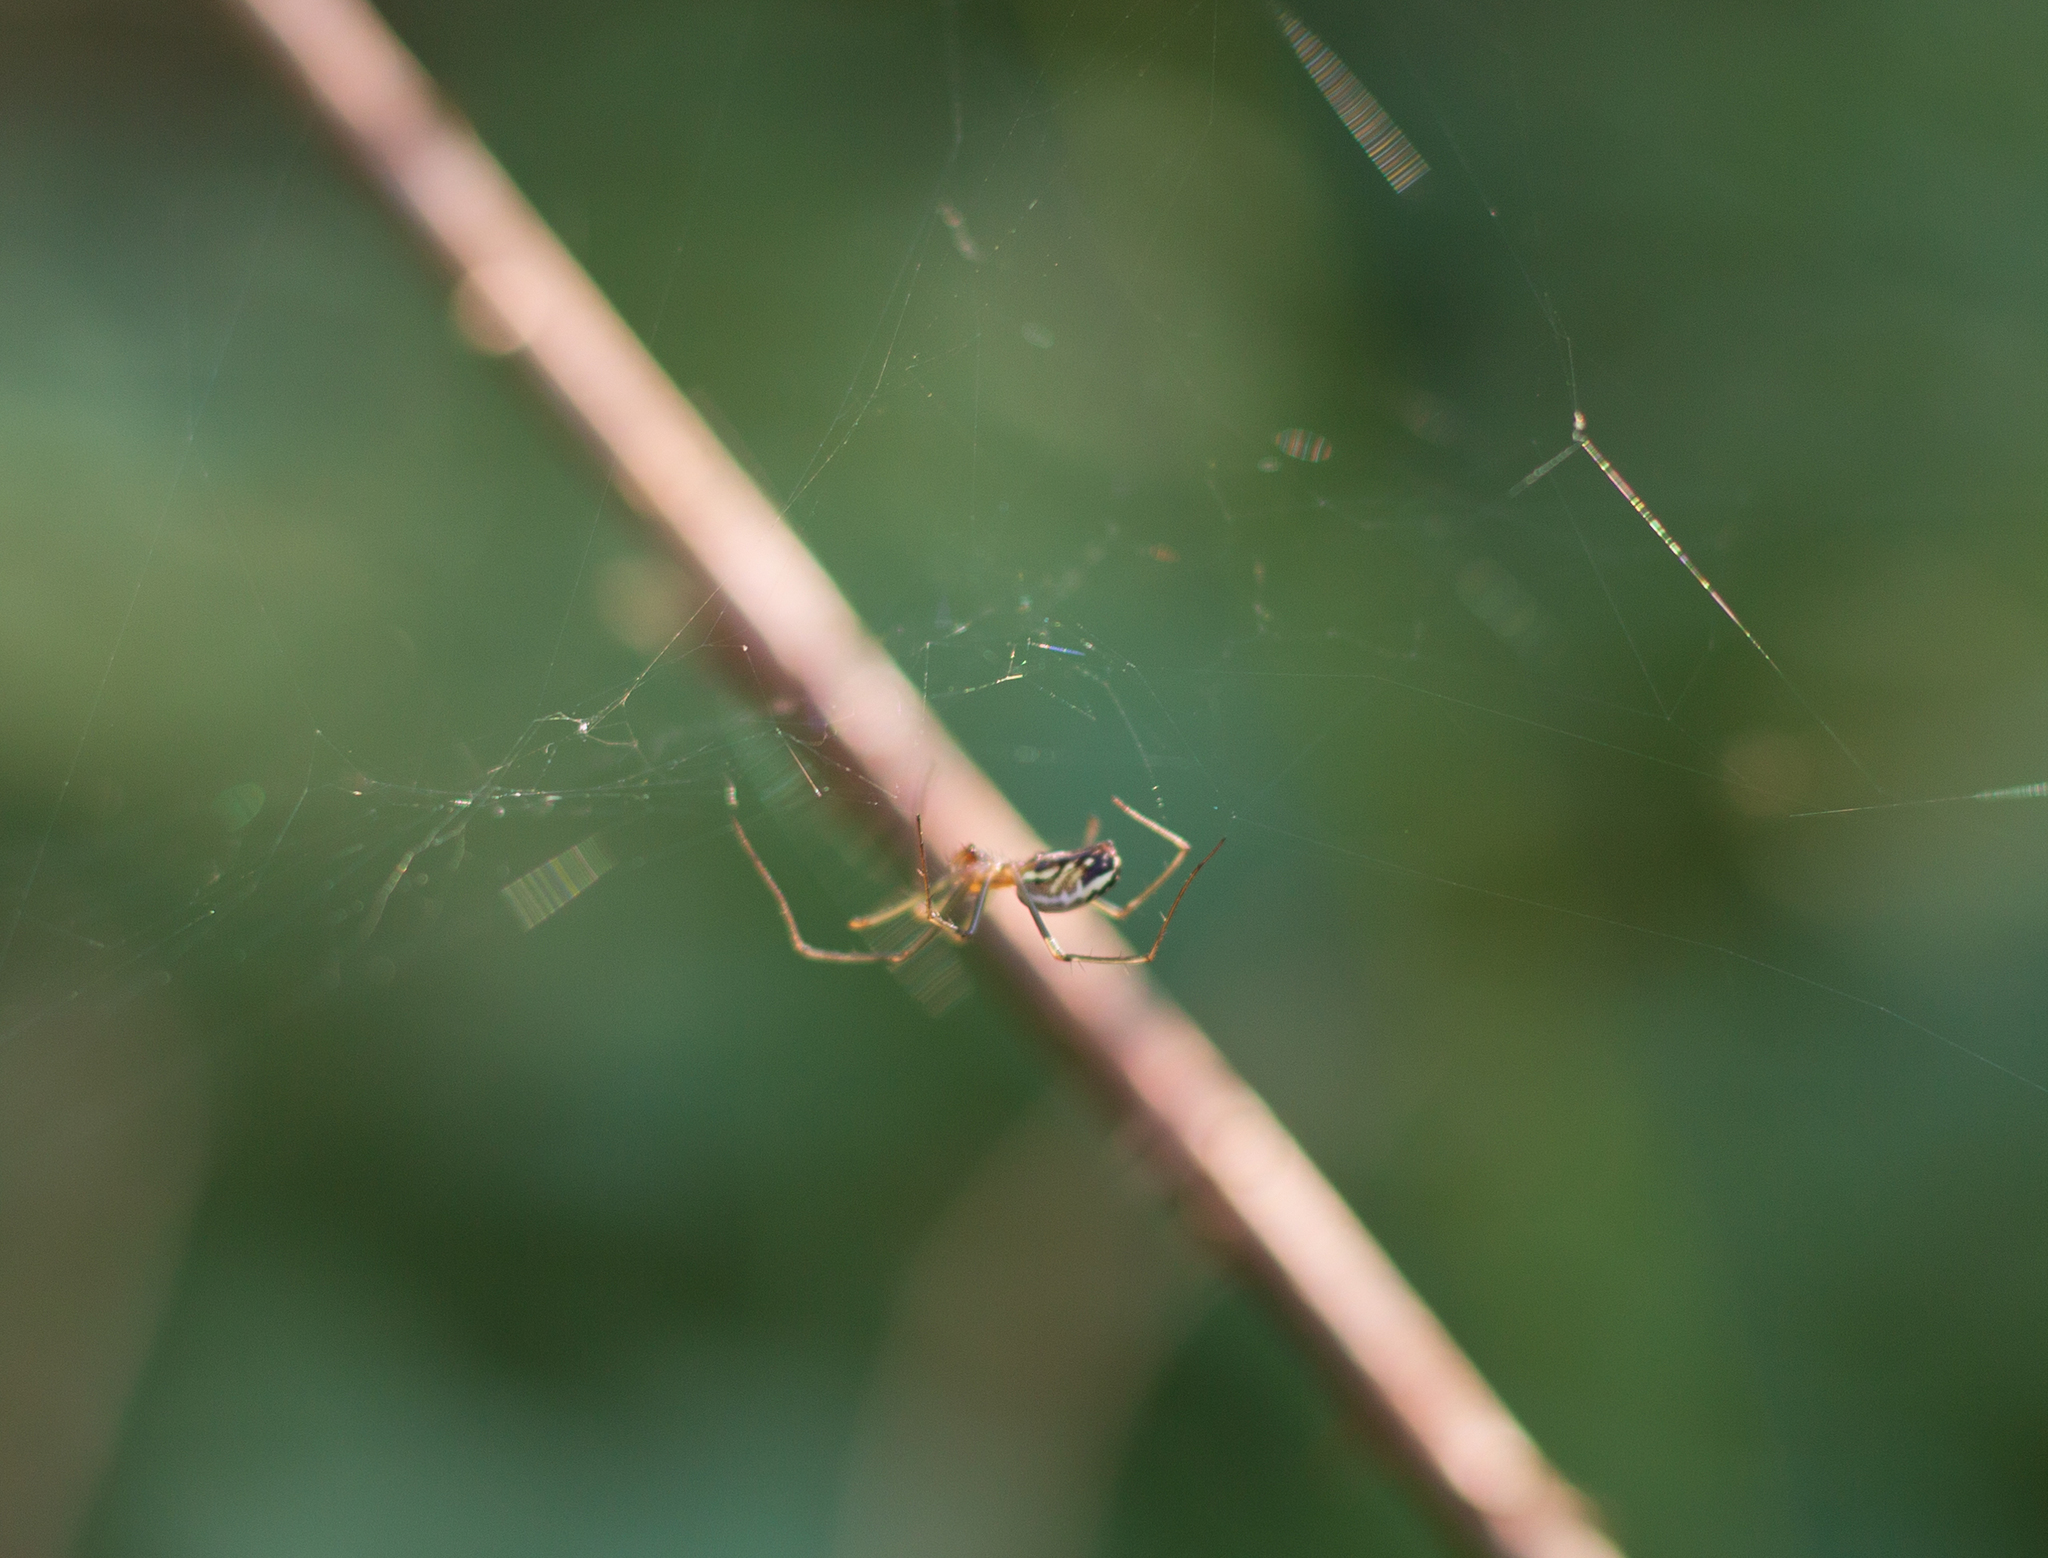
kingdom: Animalia
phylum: Arthropoda
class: Arachnida
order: Araneae
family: Linyphiidae
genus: Neriene
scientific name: Neriene litigiosa
